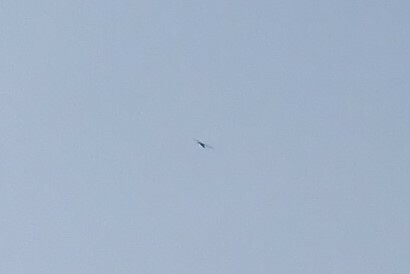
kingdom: Animalia
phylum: Chordata
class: Aves
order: Ciconiiformes
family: Ciconiidae
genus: Jabiru
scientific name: Jabiru mycteria
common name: Jabiru
